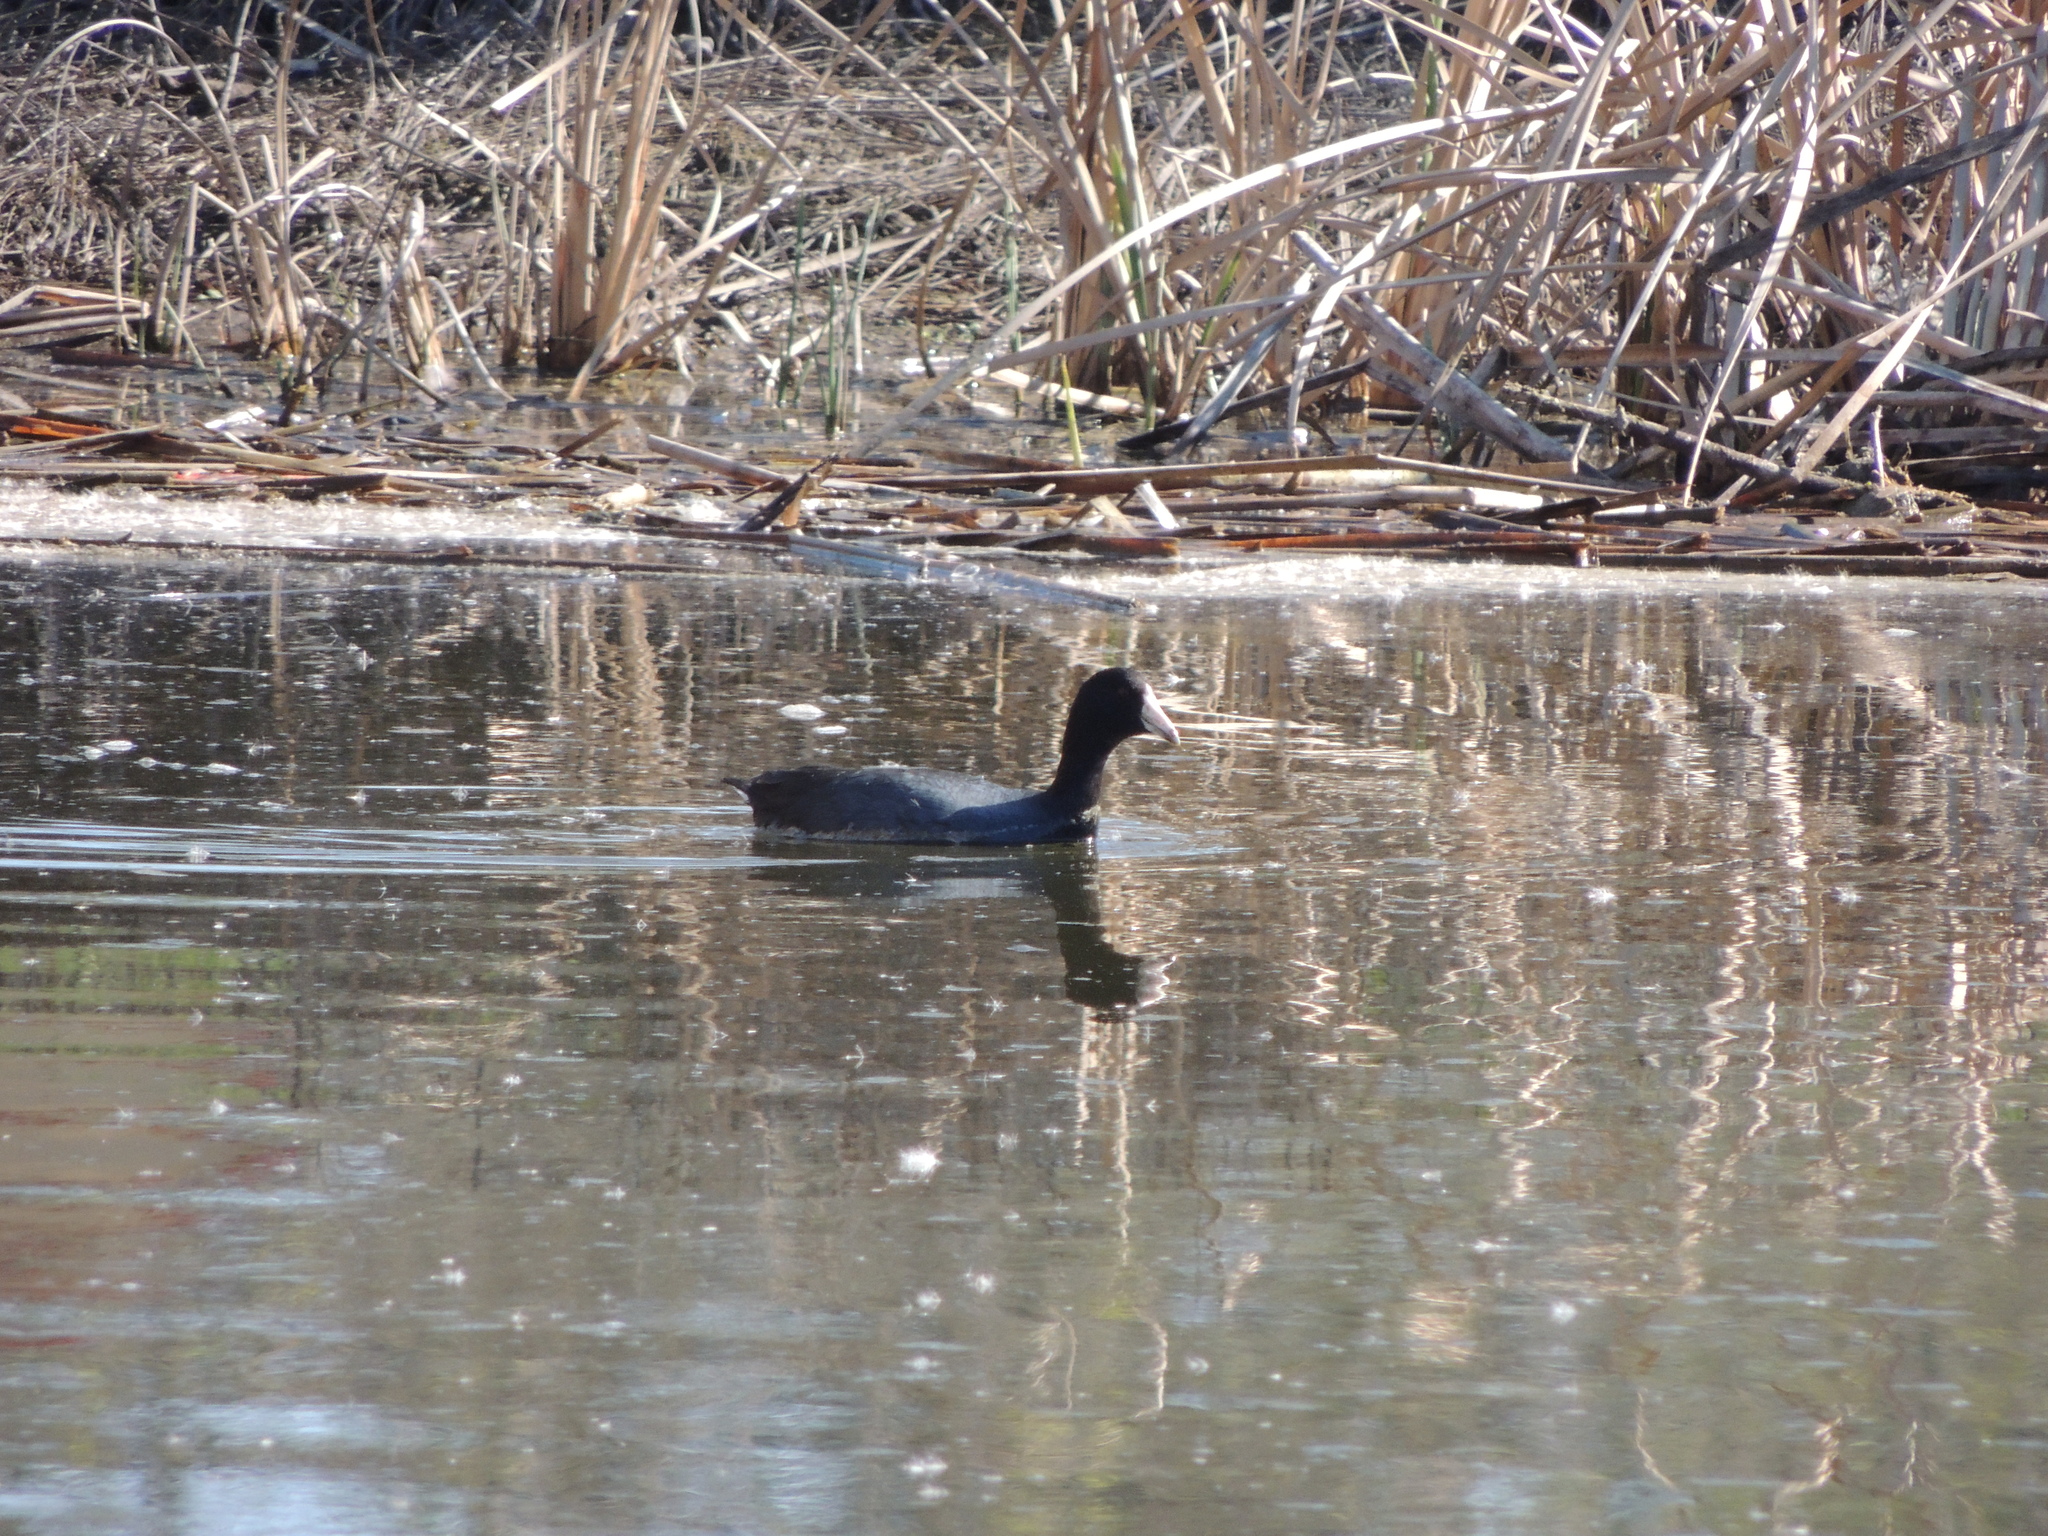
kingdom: Animalia
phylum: Chordata
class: Aves
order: Gruiformes
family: Rallidae
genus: Fulica
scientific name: Fulica americana
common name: American coot
